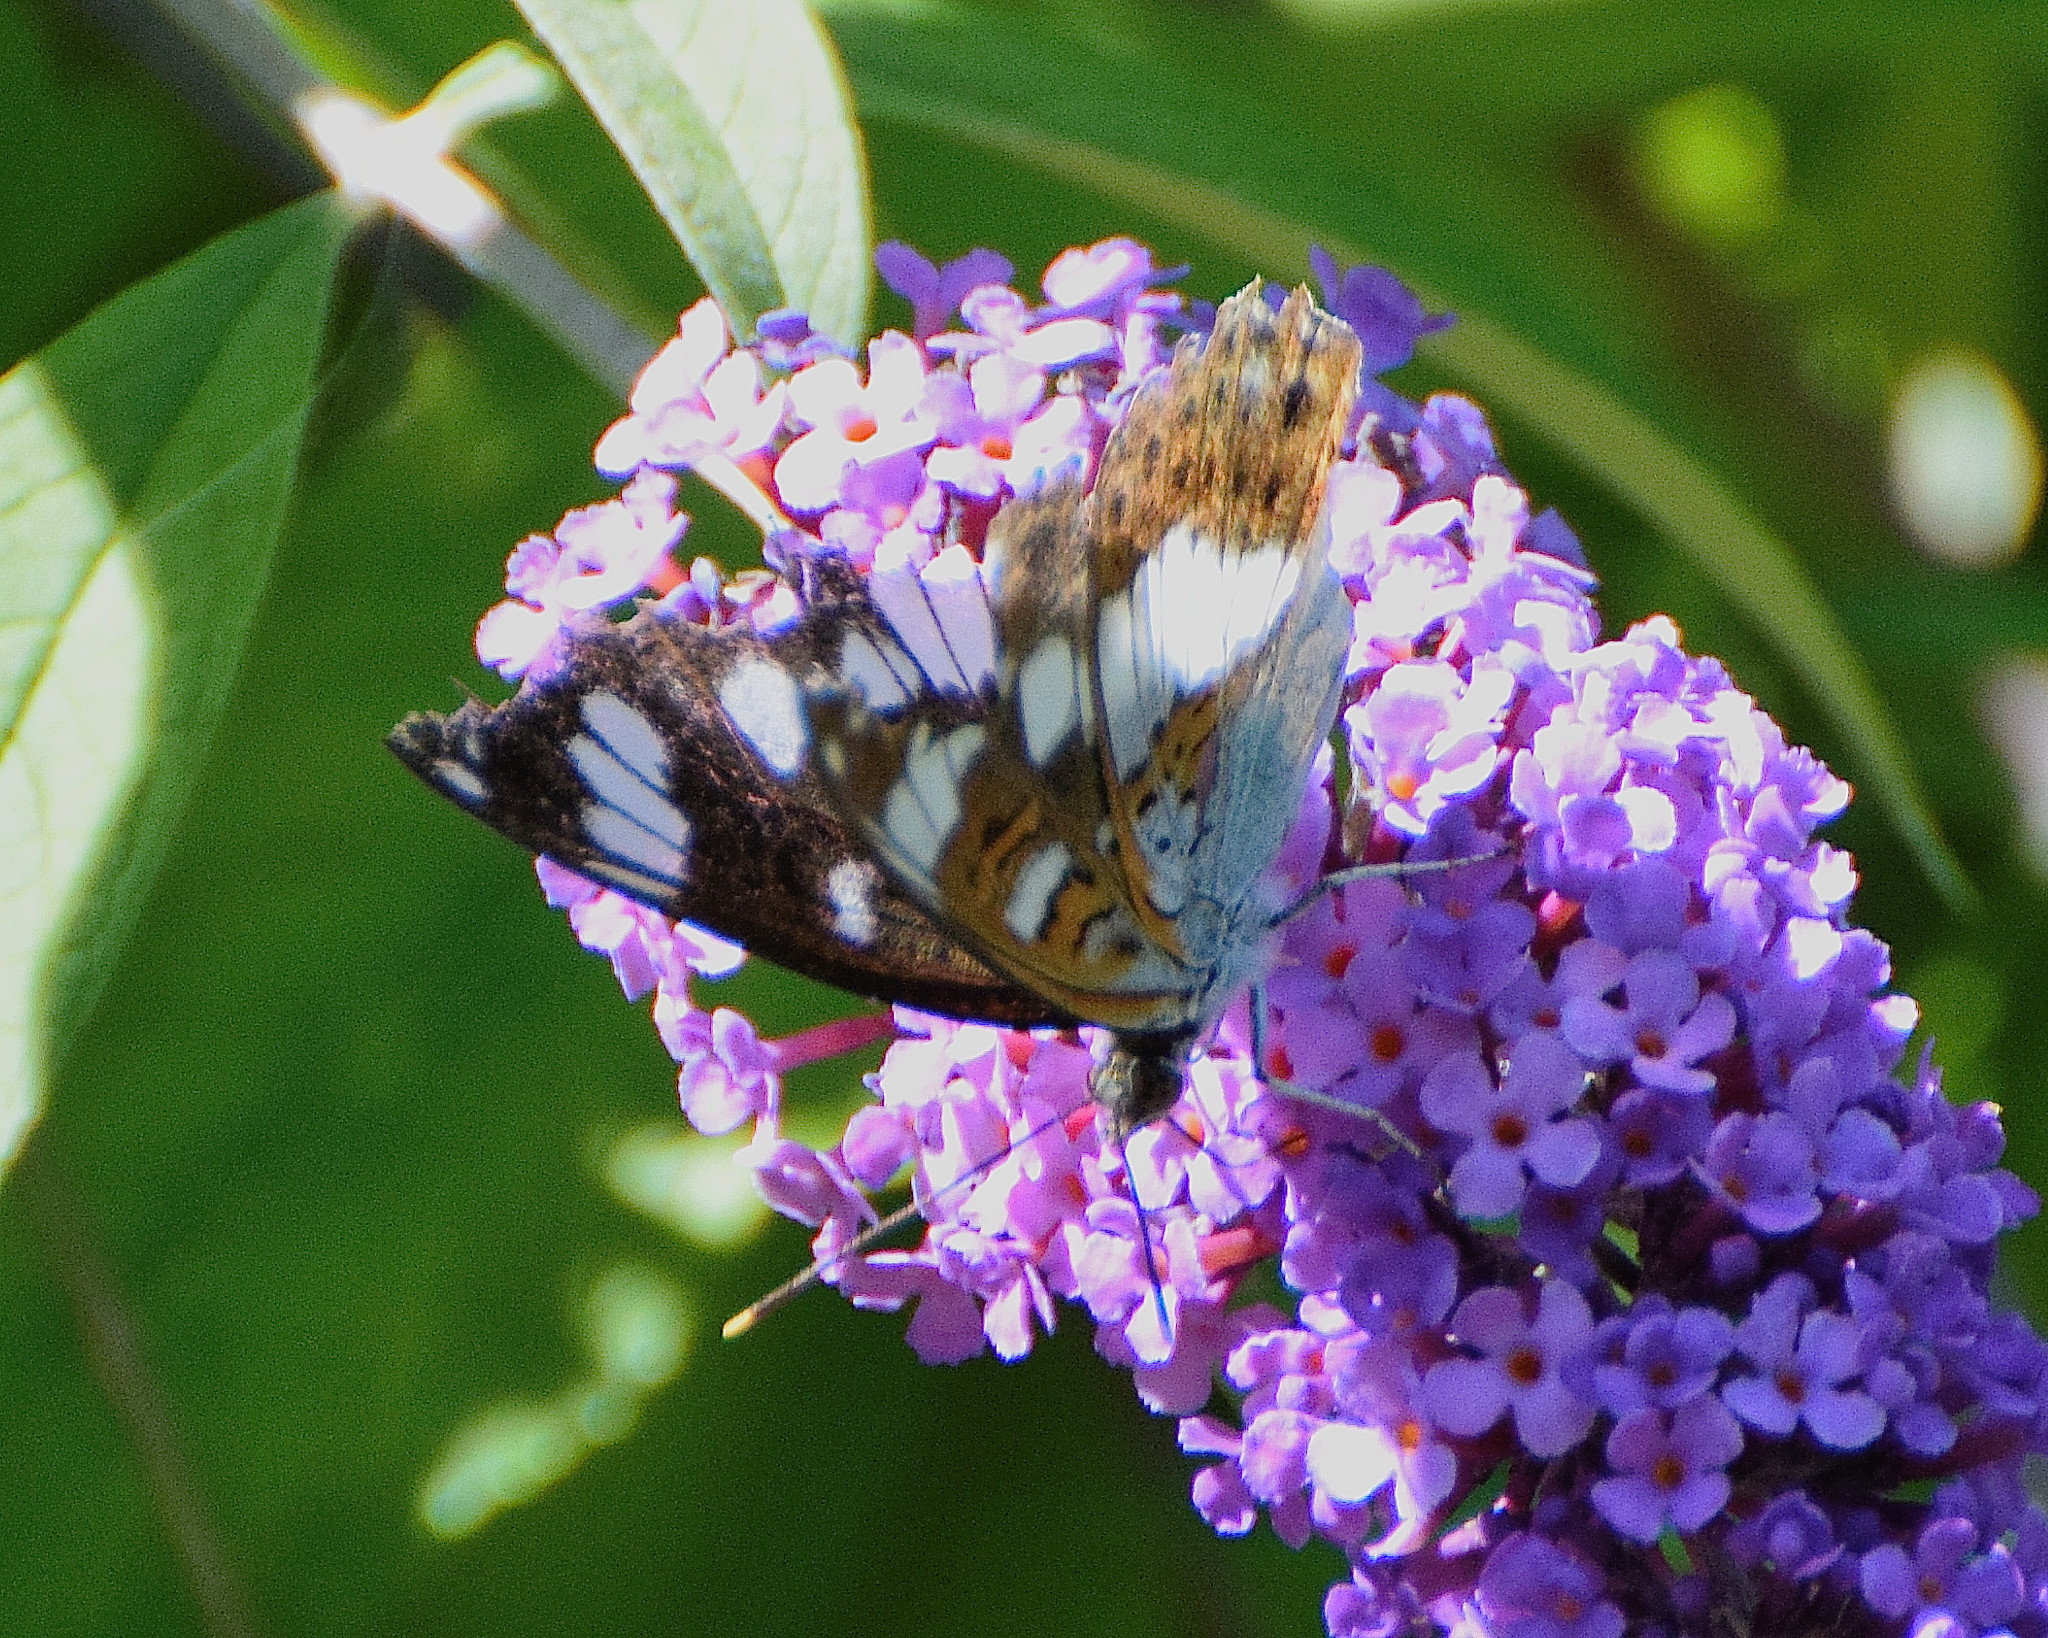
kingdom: Animalia
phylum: Arthropoda
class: Insecta
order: Lepidoptera
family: Nymphalidae
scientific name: Nymphalidae
